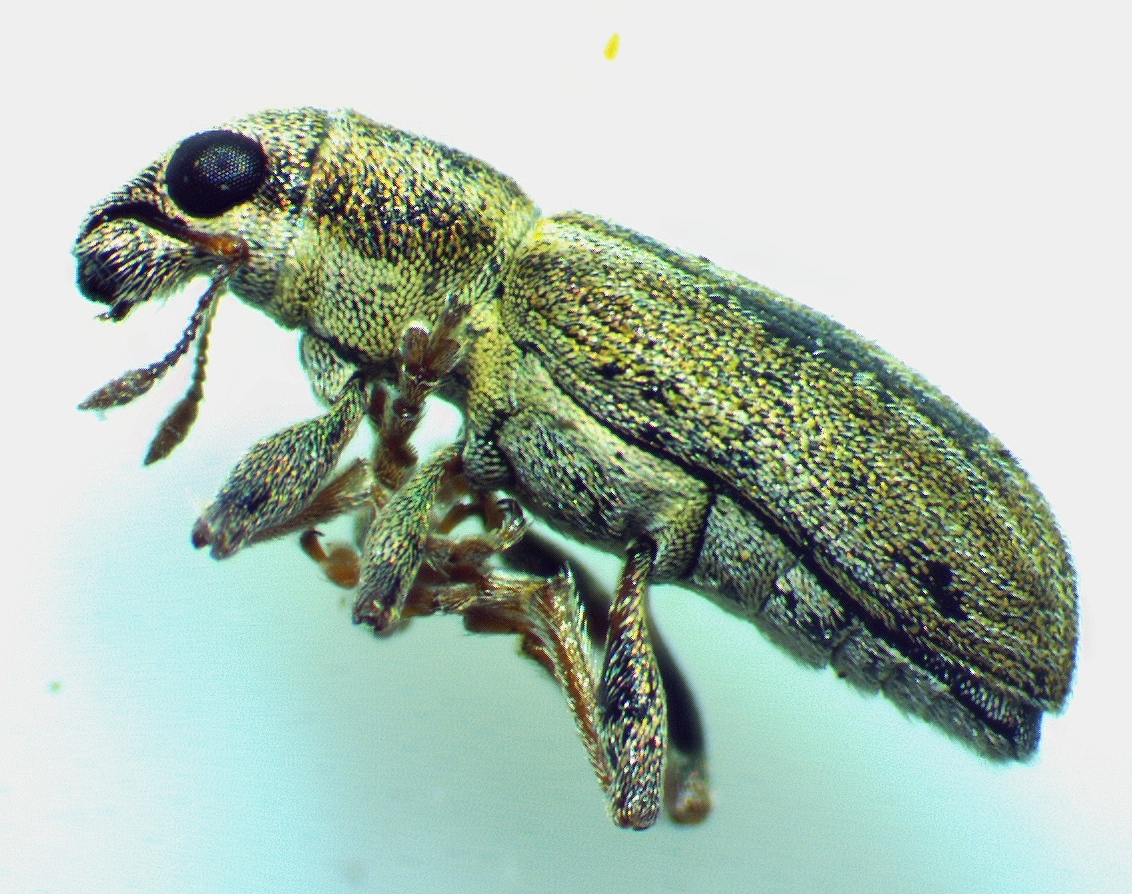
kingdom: Animalia
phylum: Arthropoda
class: Insecta
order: Coleoptera
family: Curculionidae
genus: Sitona
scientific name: Sitona lineatus
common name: Weevil
